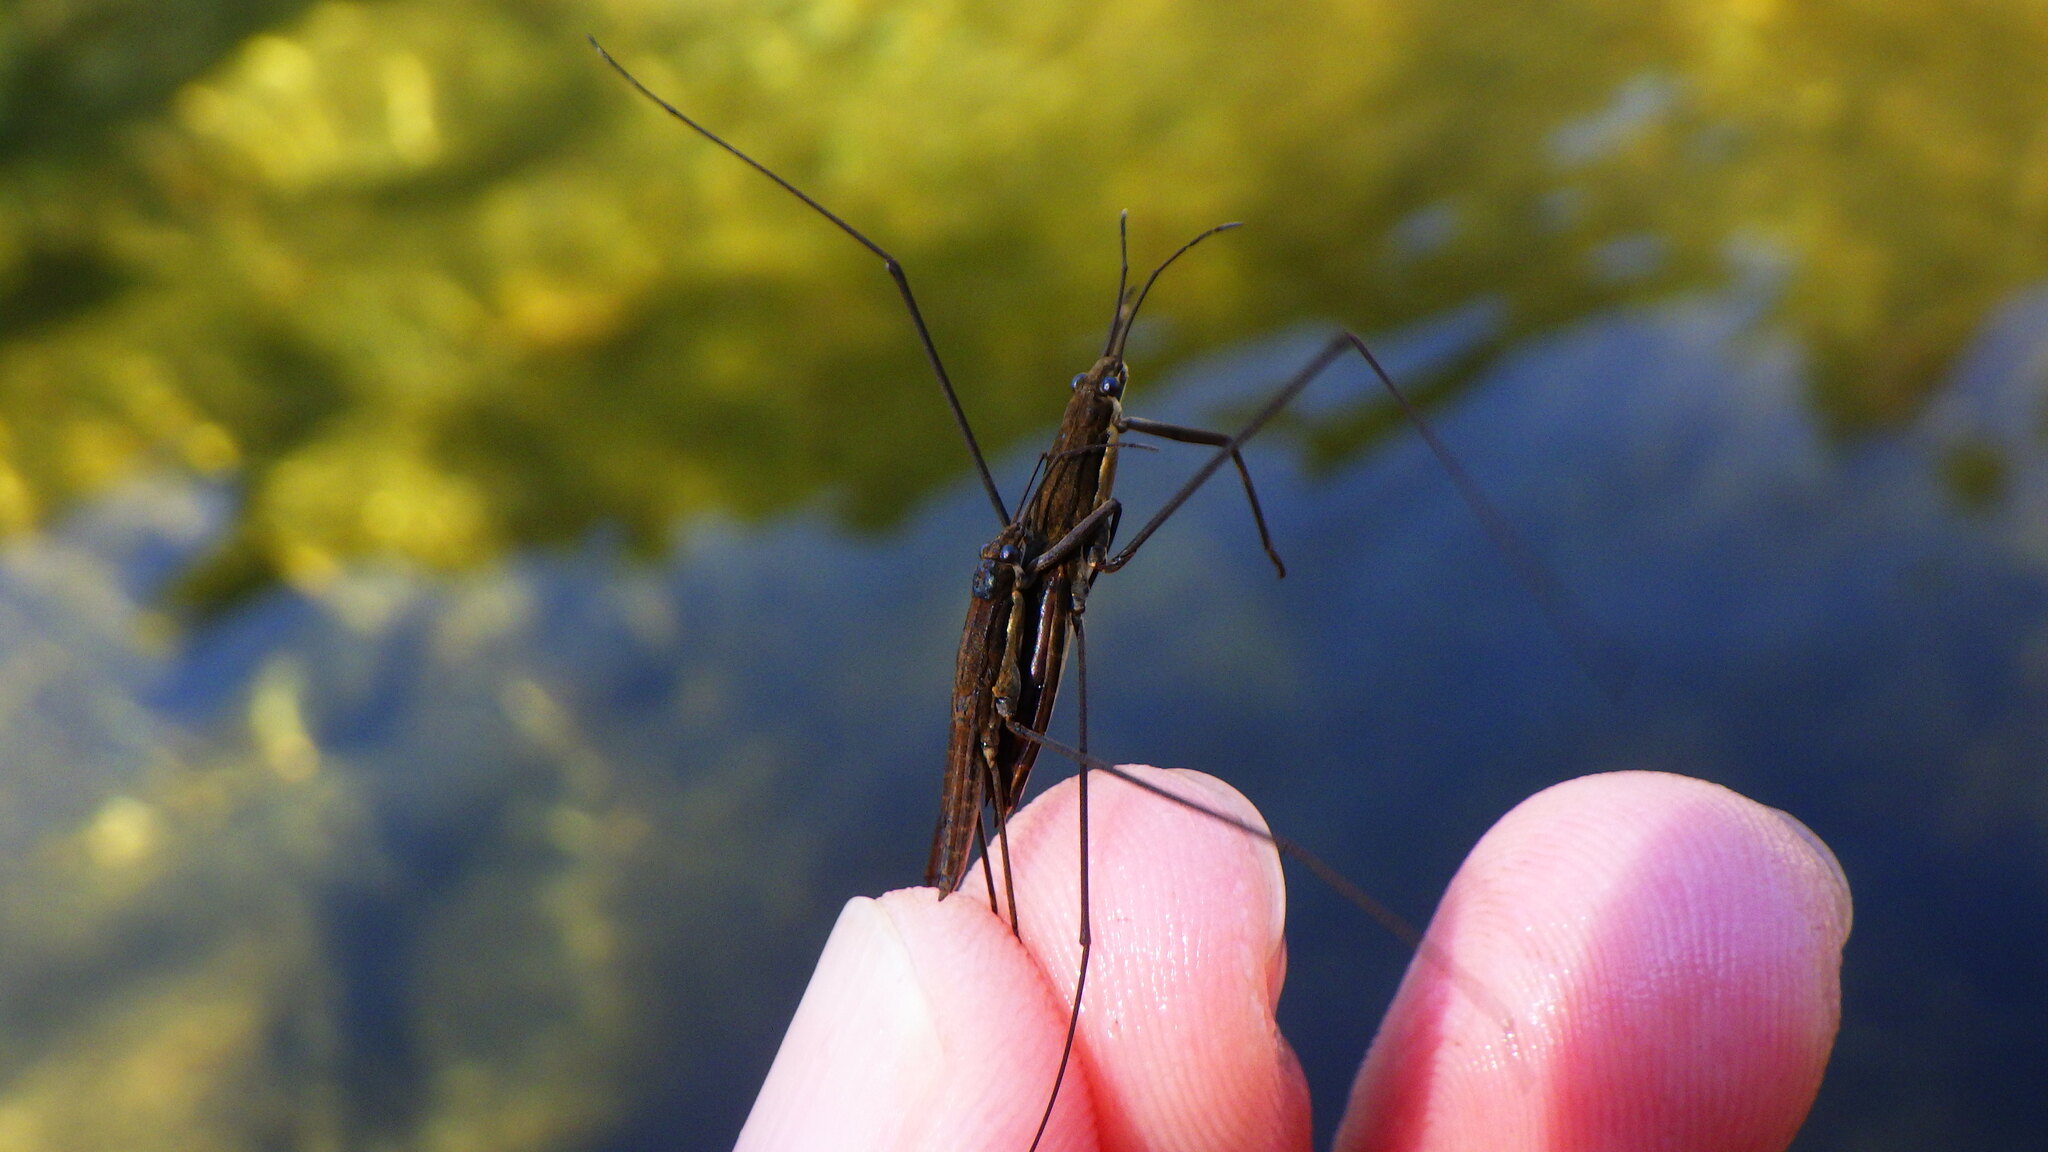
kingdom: Animalia
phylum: Arthropoda
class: Insecta
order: Hemiptera
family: Gerridae
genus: Aquarius
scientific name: Aquarius najas
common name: River skater
